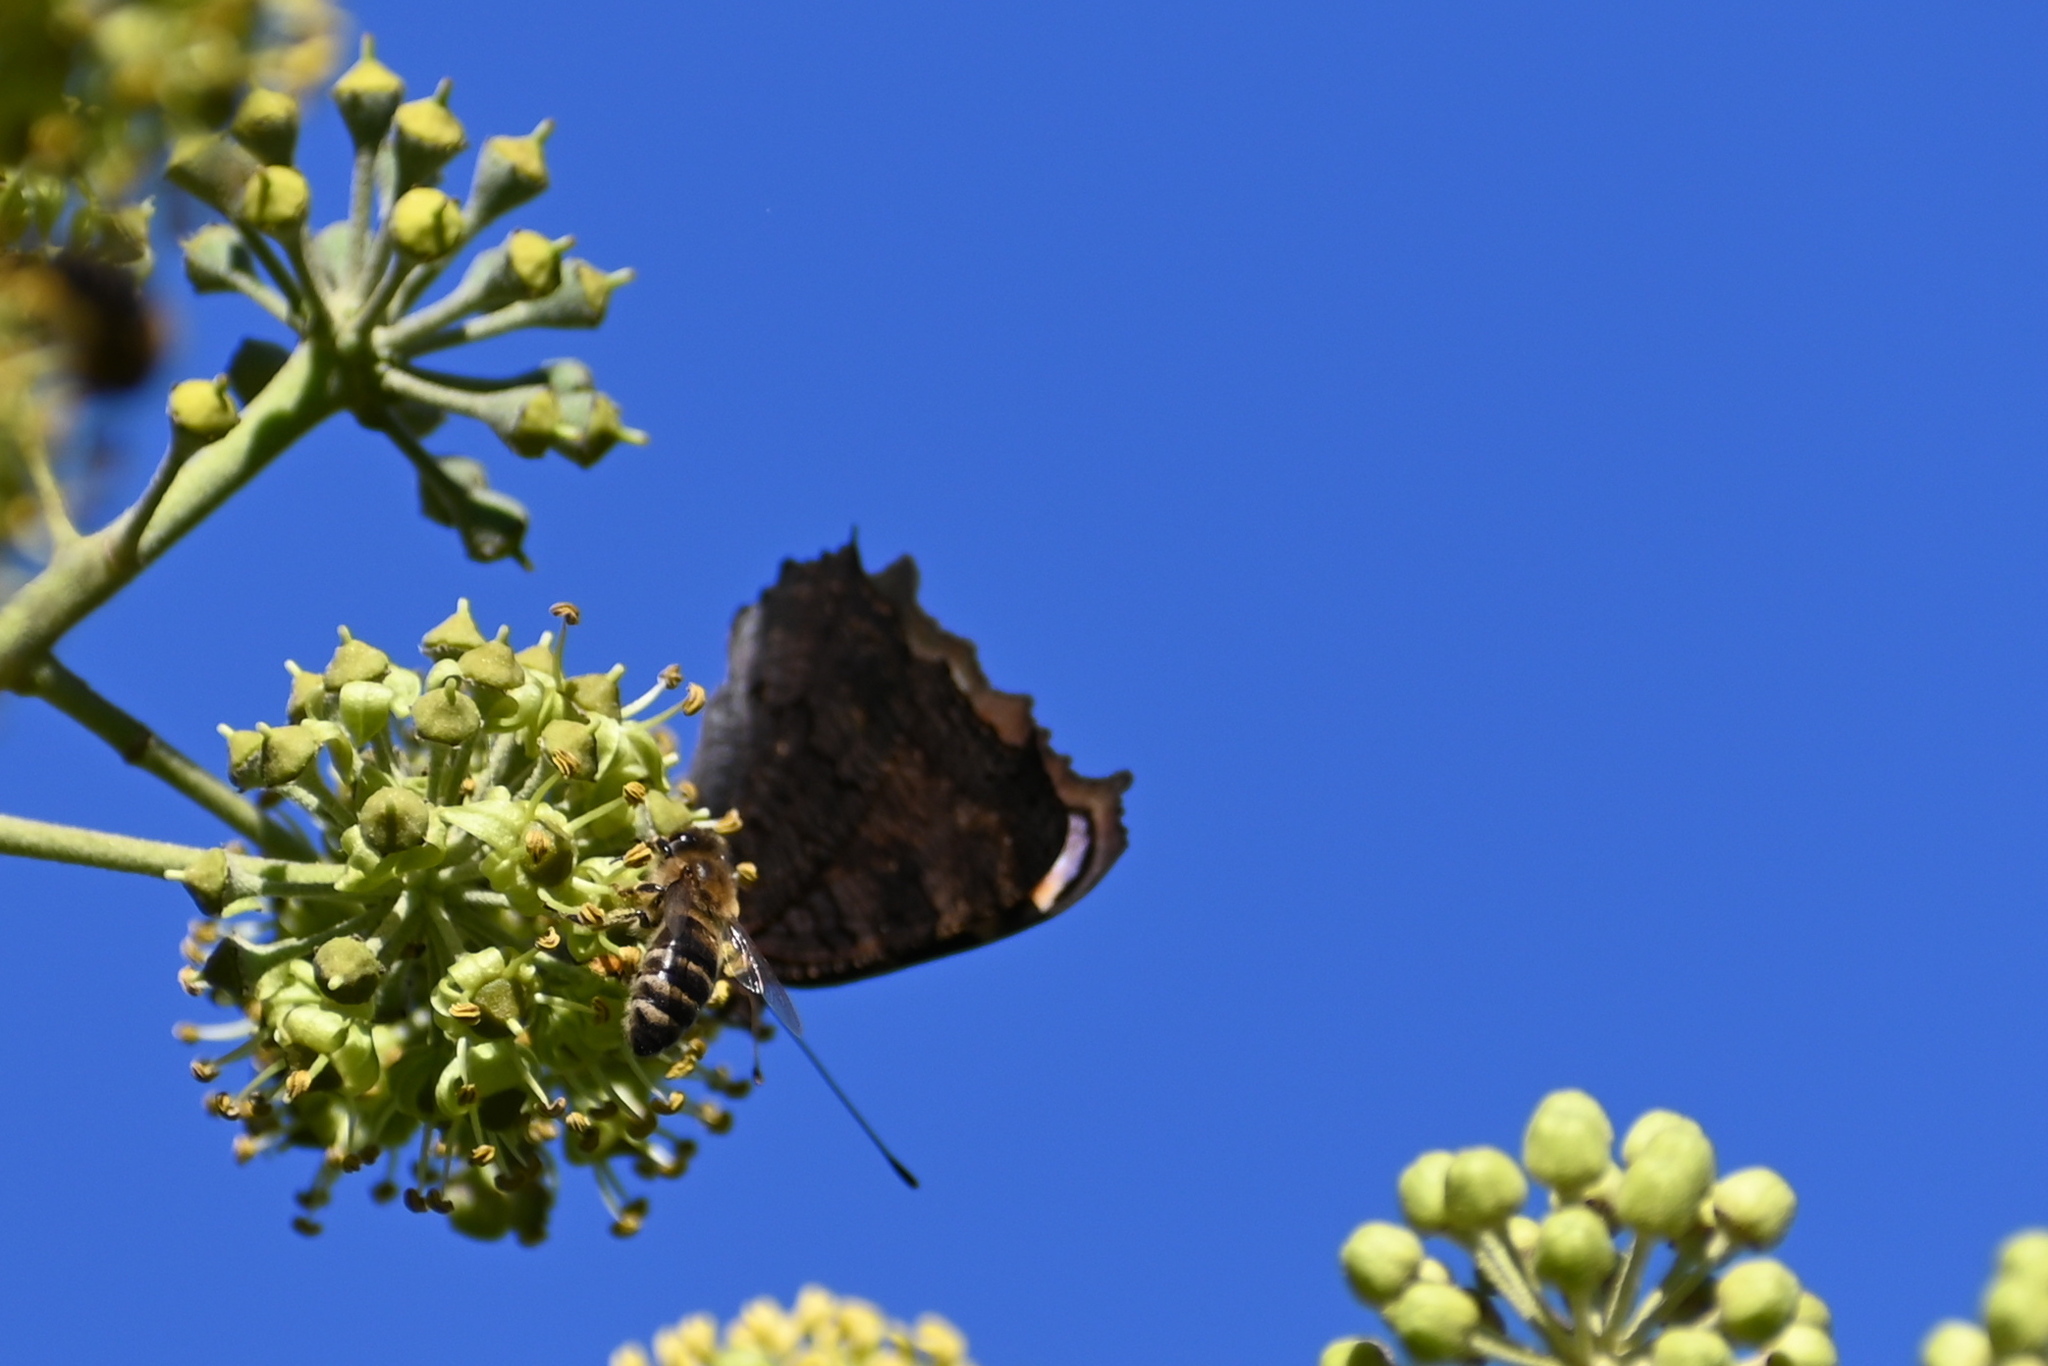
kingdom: Animalia
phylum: Arthropoda
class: Insecta
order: Lepidoptera
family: Nymphalidae
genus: Aglais
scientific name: Aglais io
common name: Peacock
